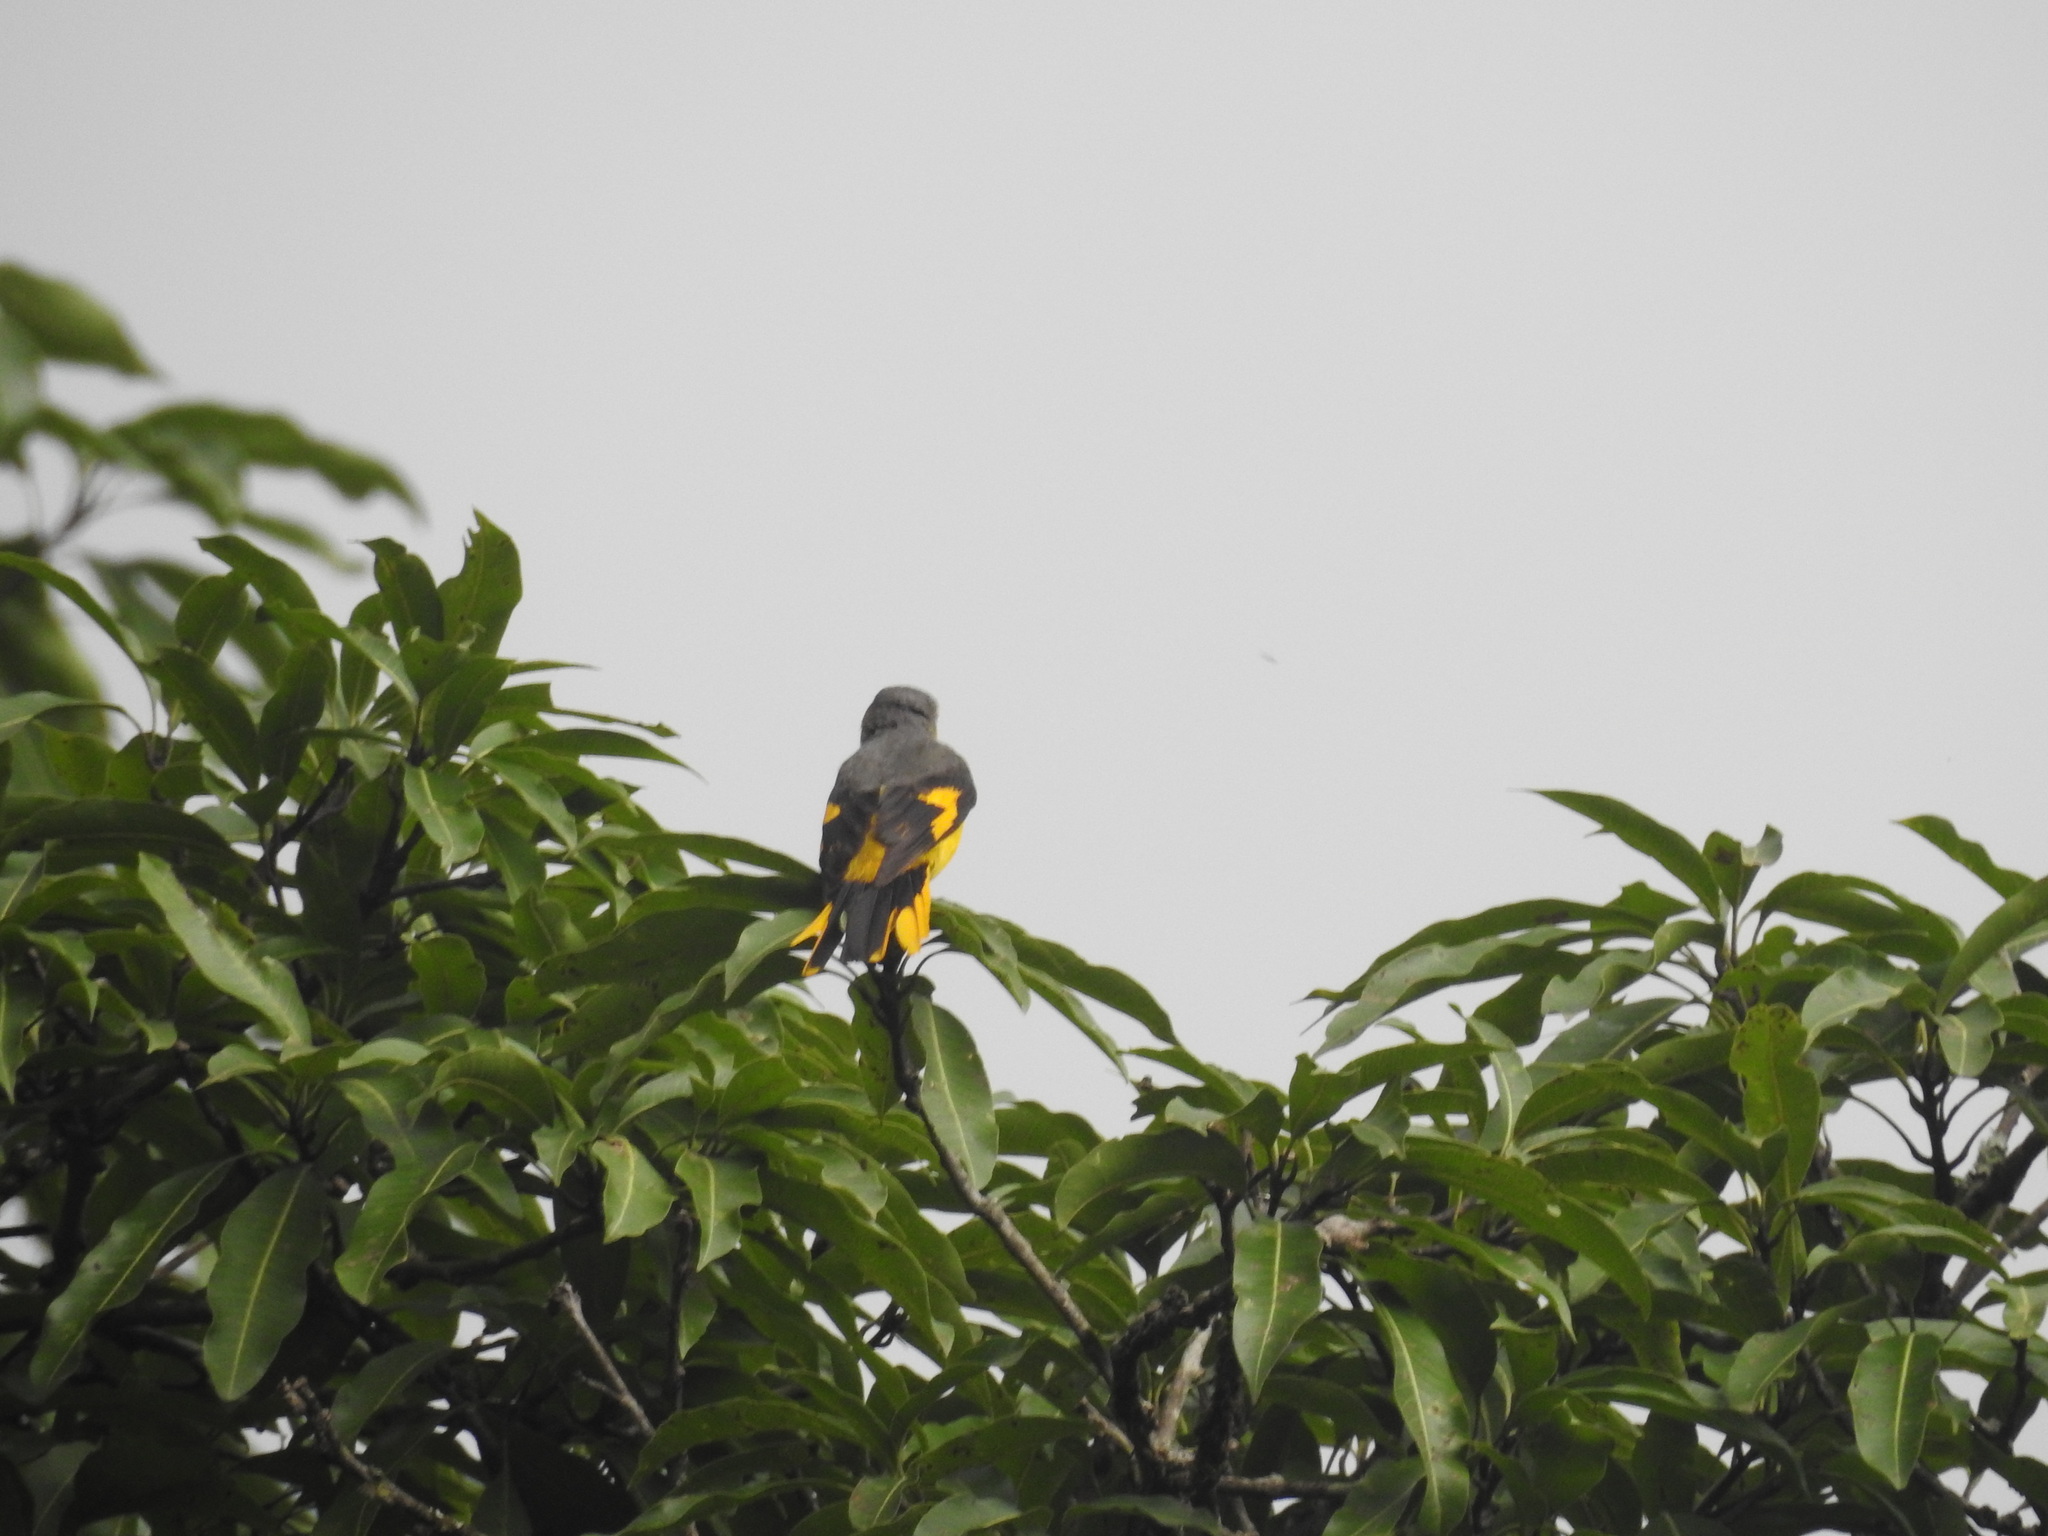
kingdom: Animalia
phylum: Chordata
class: Aves
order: Passeriformes
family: Campephagidae
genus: Pericrocotus
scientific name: Pericrocotus speciosus
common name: Scarlet minivet
